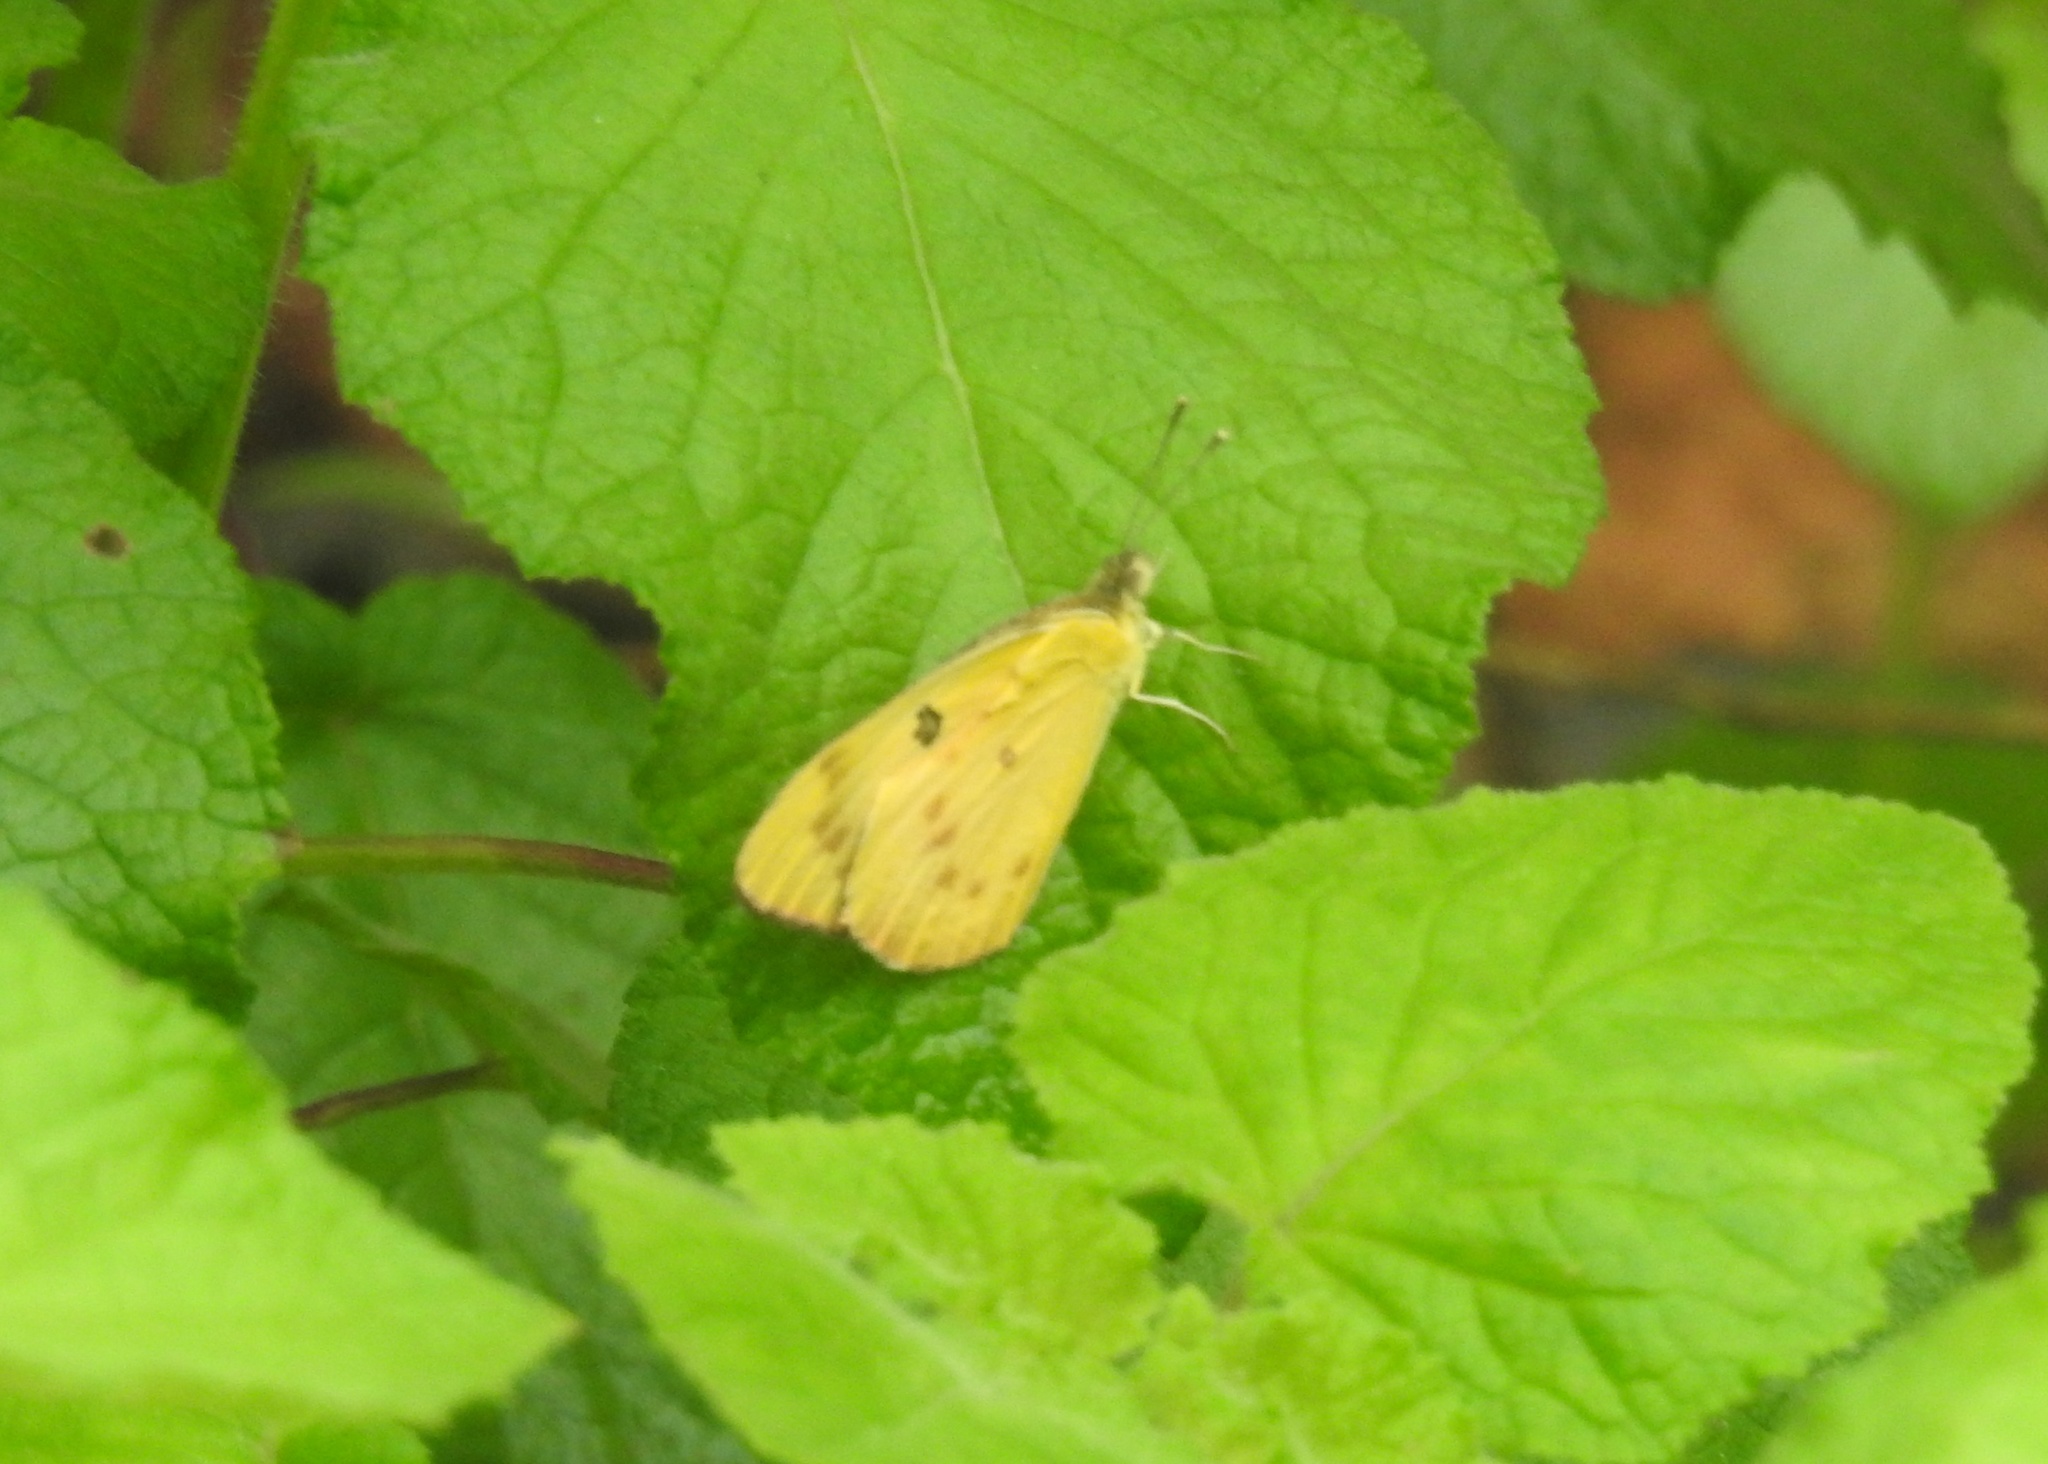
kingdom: Animalia
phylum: Arthropoda
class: Insecta
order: Lepidoptera
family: Pieridae
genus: Colotis
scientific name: Colotis fausta
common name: Large salmon arab
